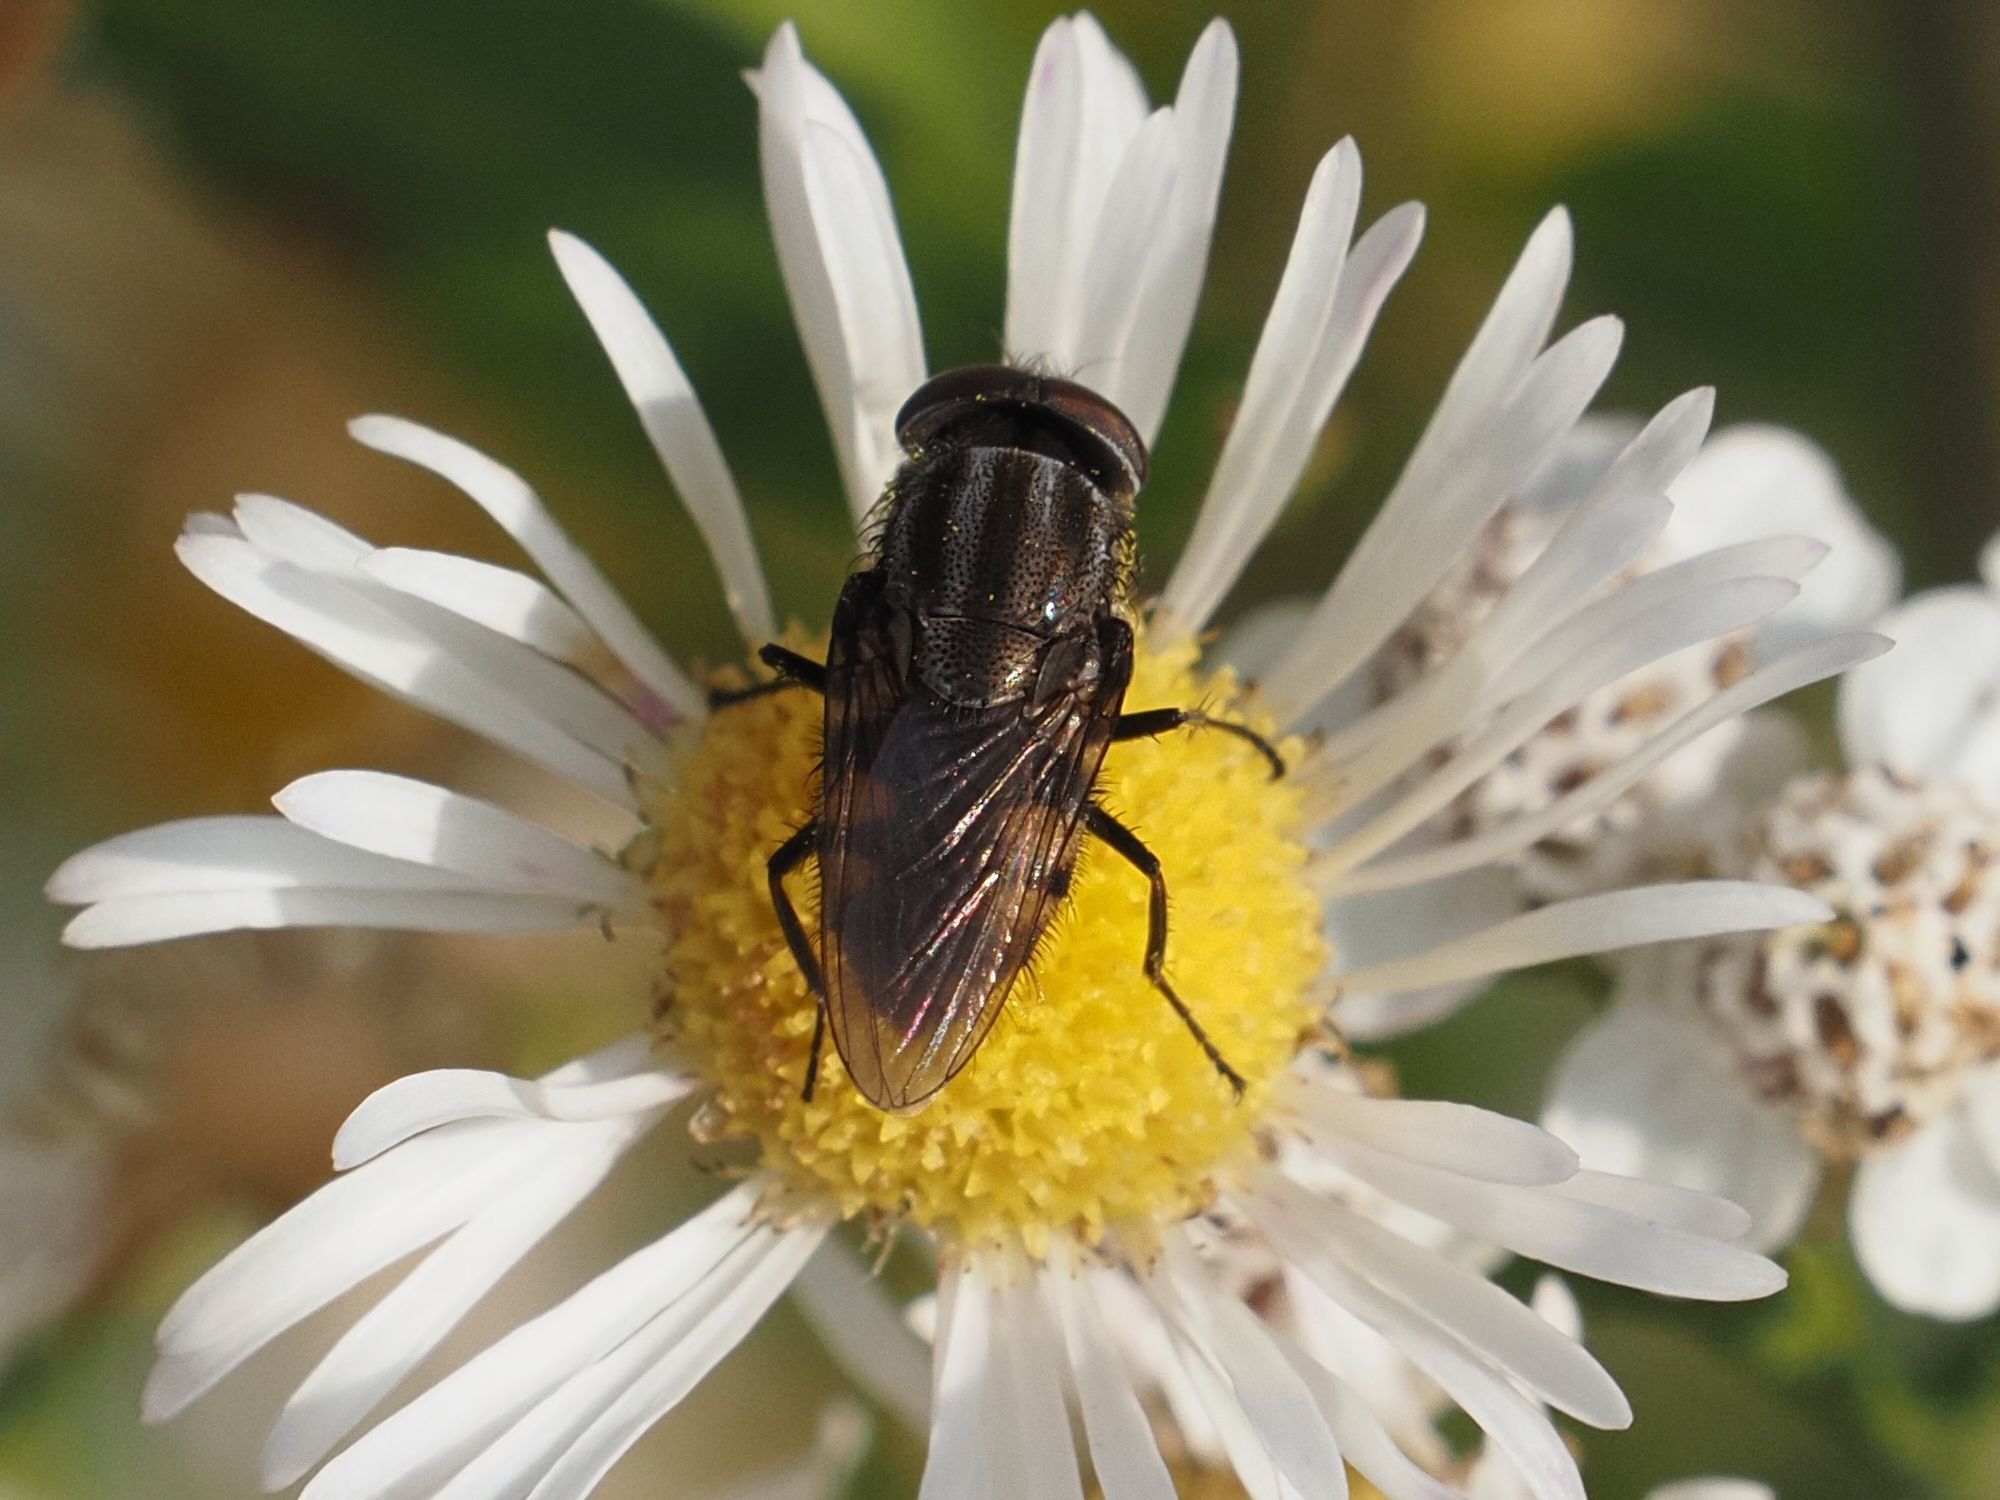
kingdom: Animalia
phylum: Arthropoda
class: Insecta
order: Diptera
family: Calliphoridae
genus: Stomorhina
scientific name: Stomorhina lunata
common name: Locust blowfly
